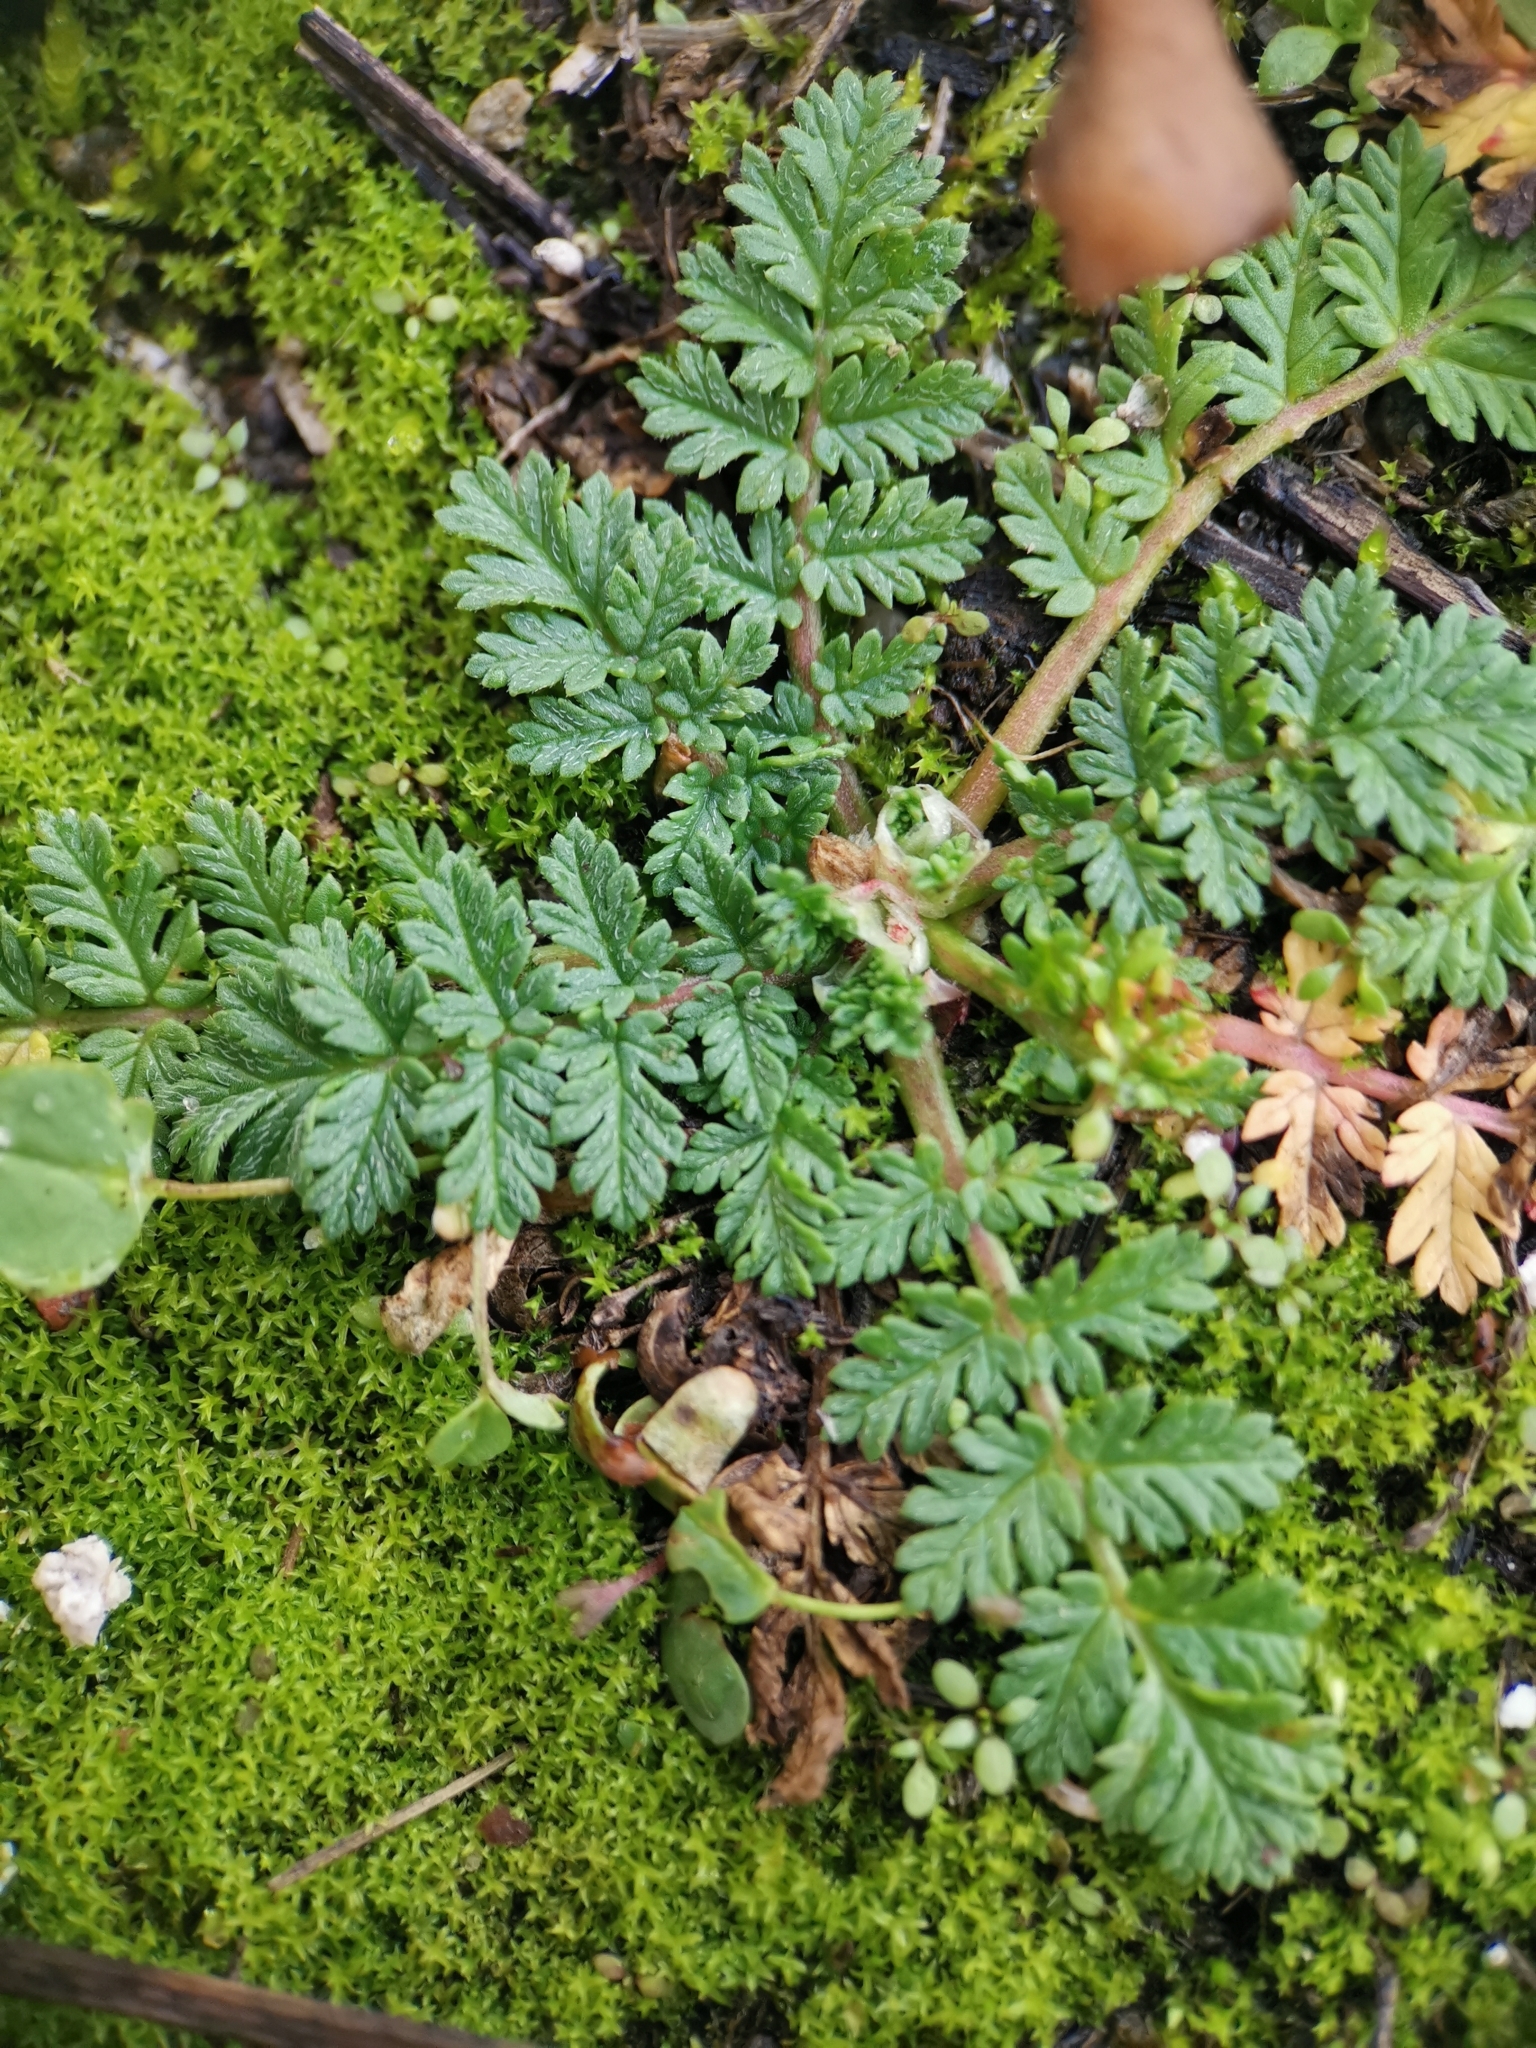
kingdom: Plantae
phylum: Tracheophyta
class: Magnoliopsida
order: Geraniales
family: Geraniaceae
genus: Erodium
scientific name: Erodium cicutarium
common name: Common stork's-bill
